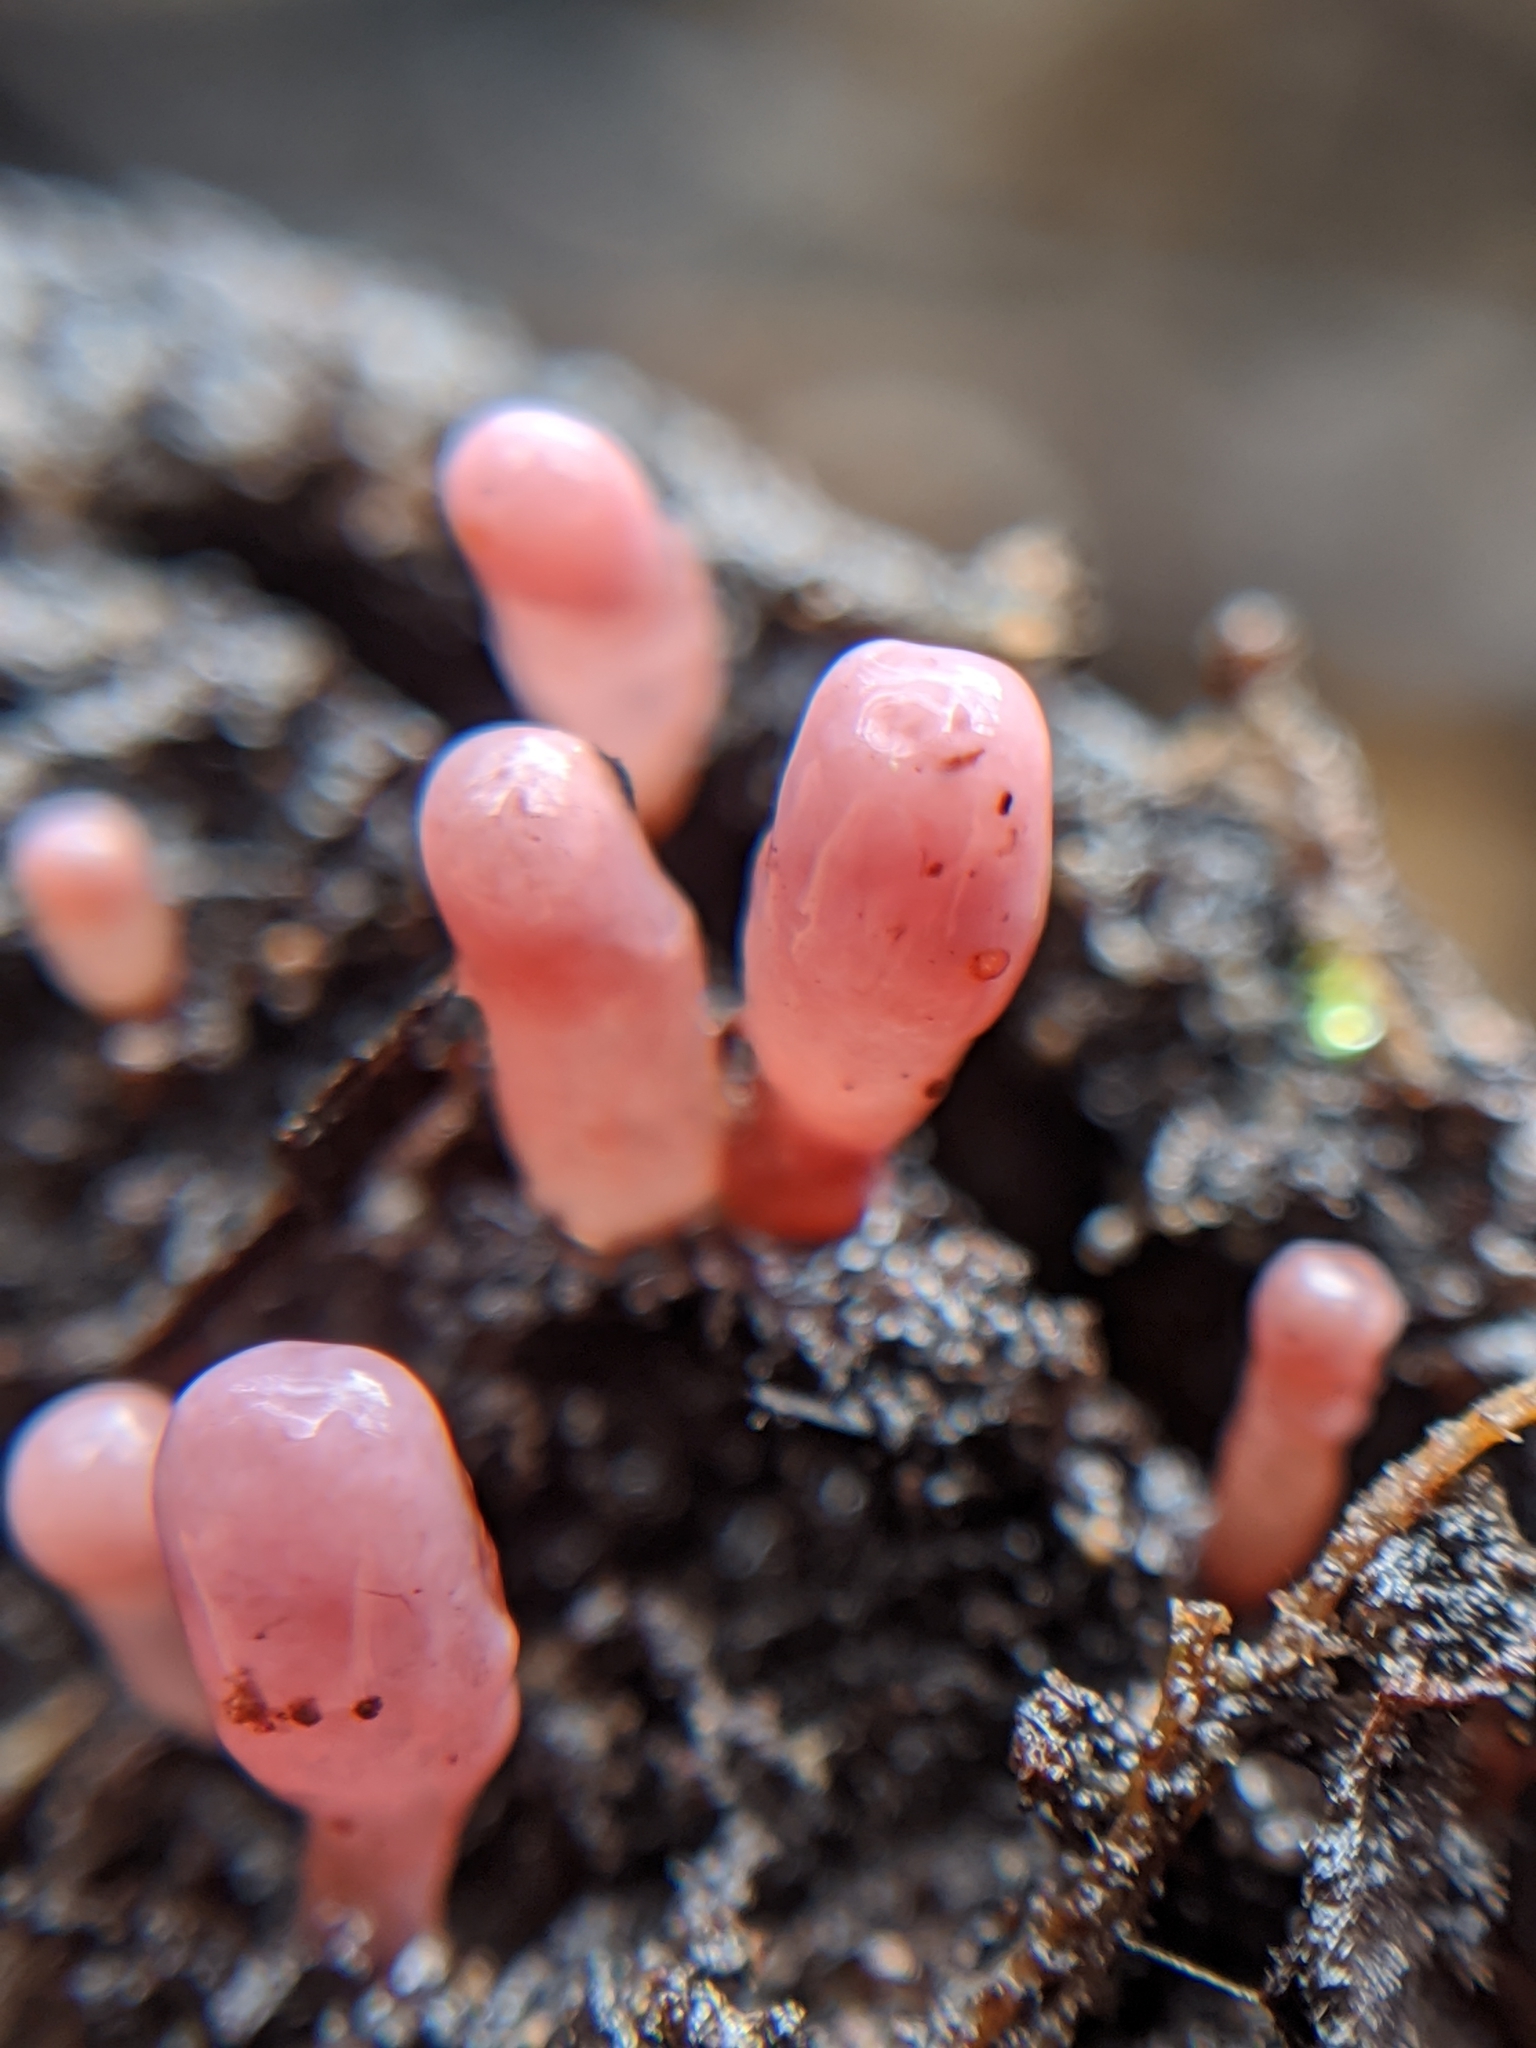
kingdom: Fungi
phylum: Ascomycota
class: Leotiomycetes
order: Helotiales
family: Gelatinodiscaceae
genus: Ascocoryne
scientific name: Ascocoryne sarcoides
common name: Purple jellydisc
